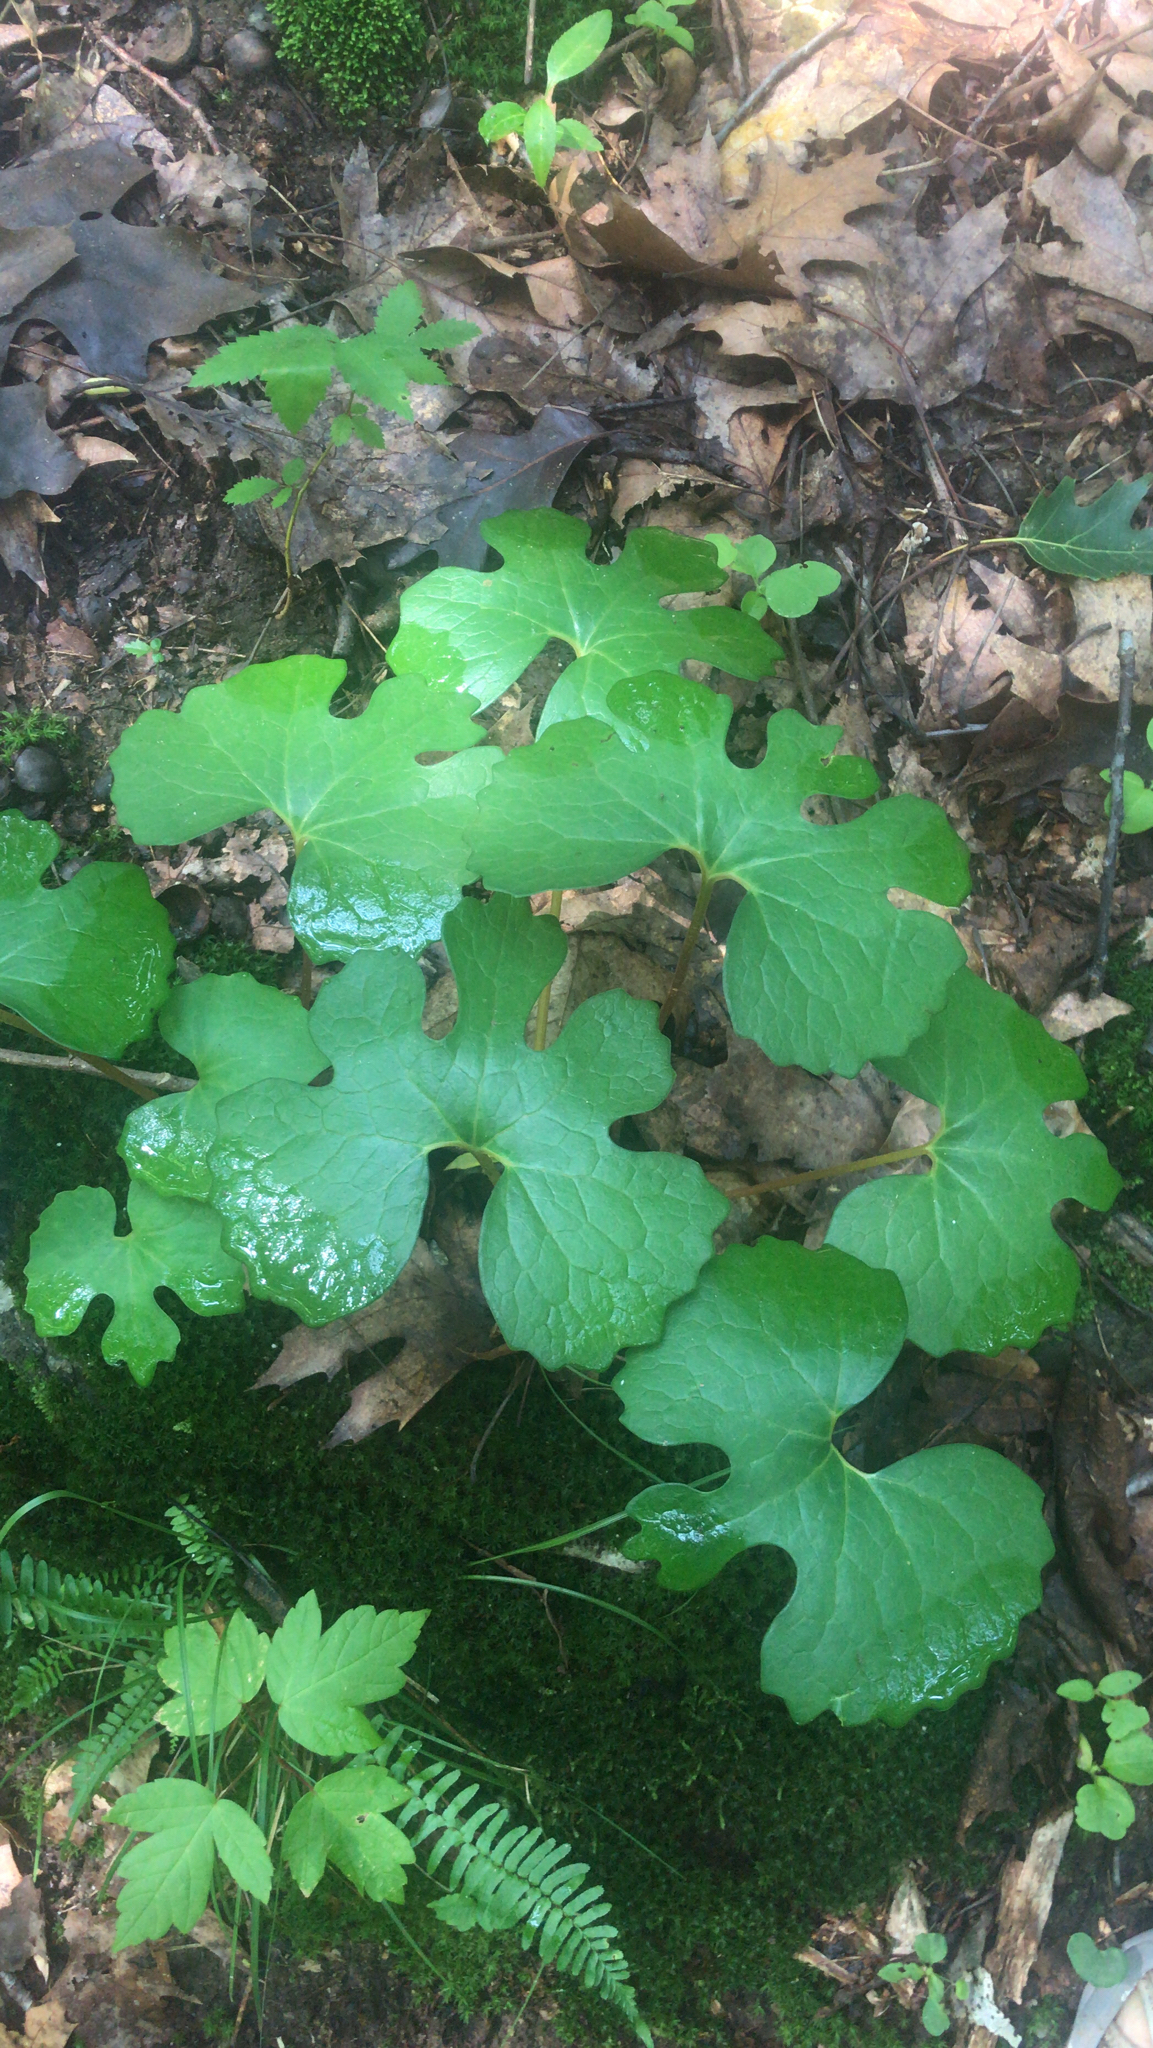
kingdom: Plantae
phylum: Tracheophyta
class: Magnoliopsida
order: Ranunculales
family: Papaveraceae
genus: Sanguinaria
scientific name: Sanguinaria canadensis
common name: Bloodroot
